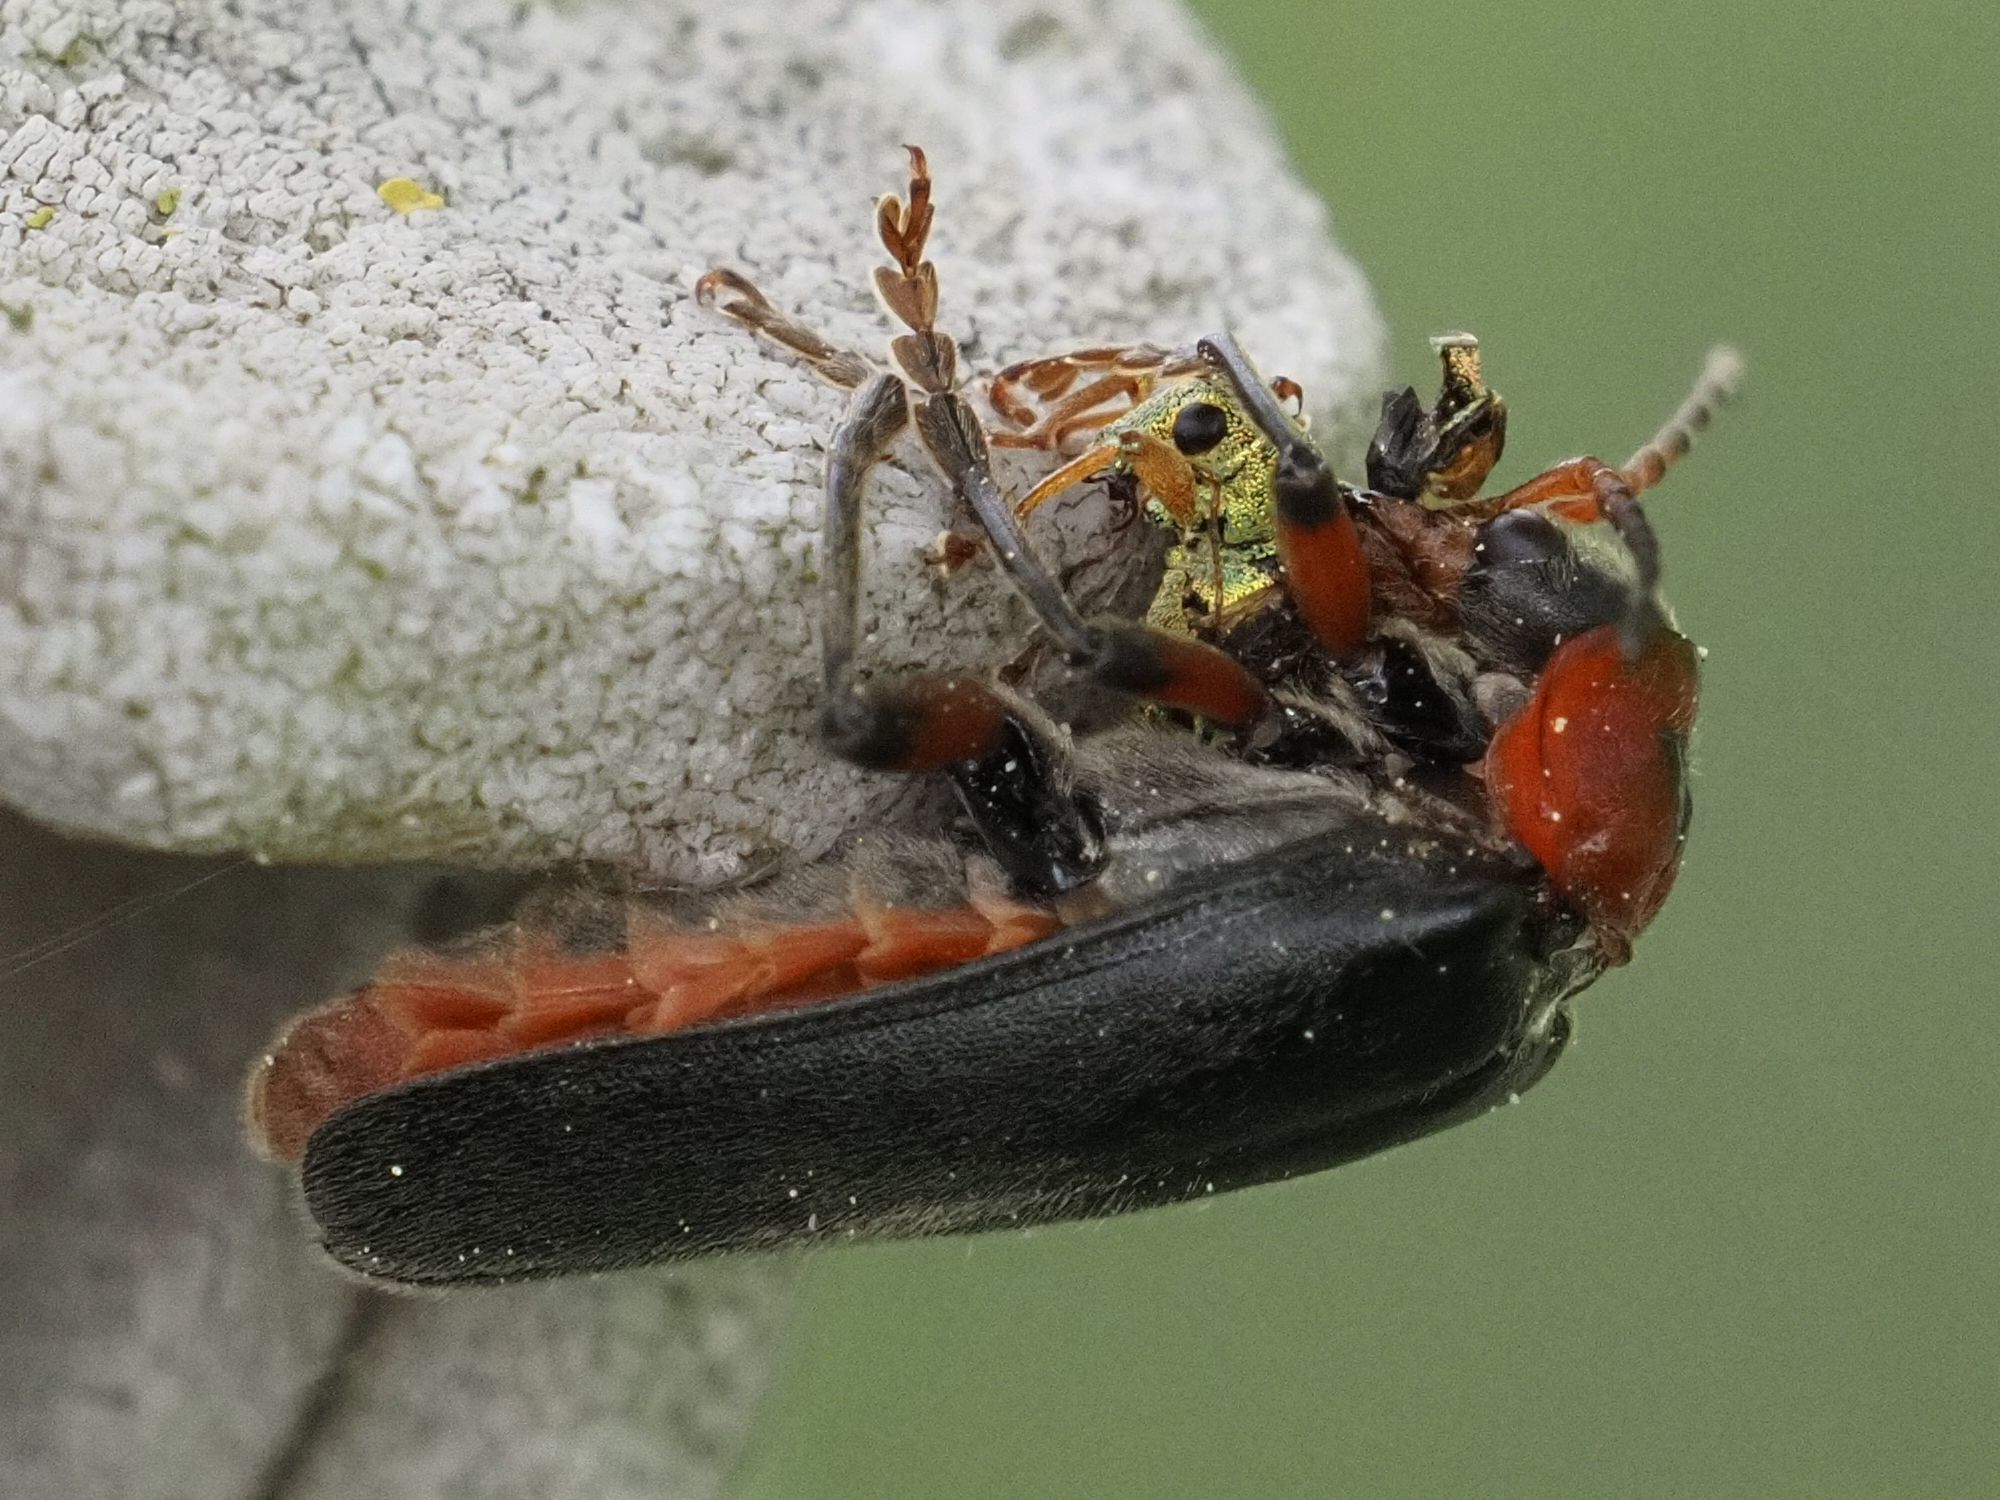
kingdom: Animalia
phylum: Arthropoda
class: Insecta
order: Coleoptera
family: Cantharidae
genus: Cantharis
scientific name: Cantharis pellucida
